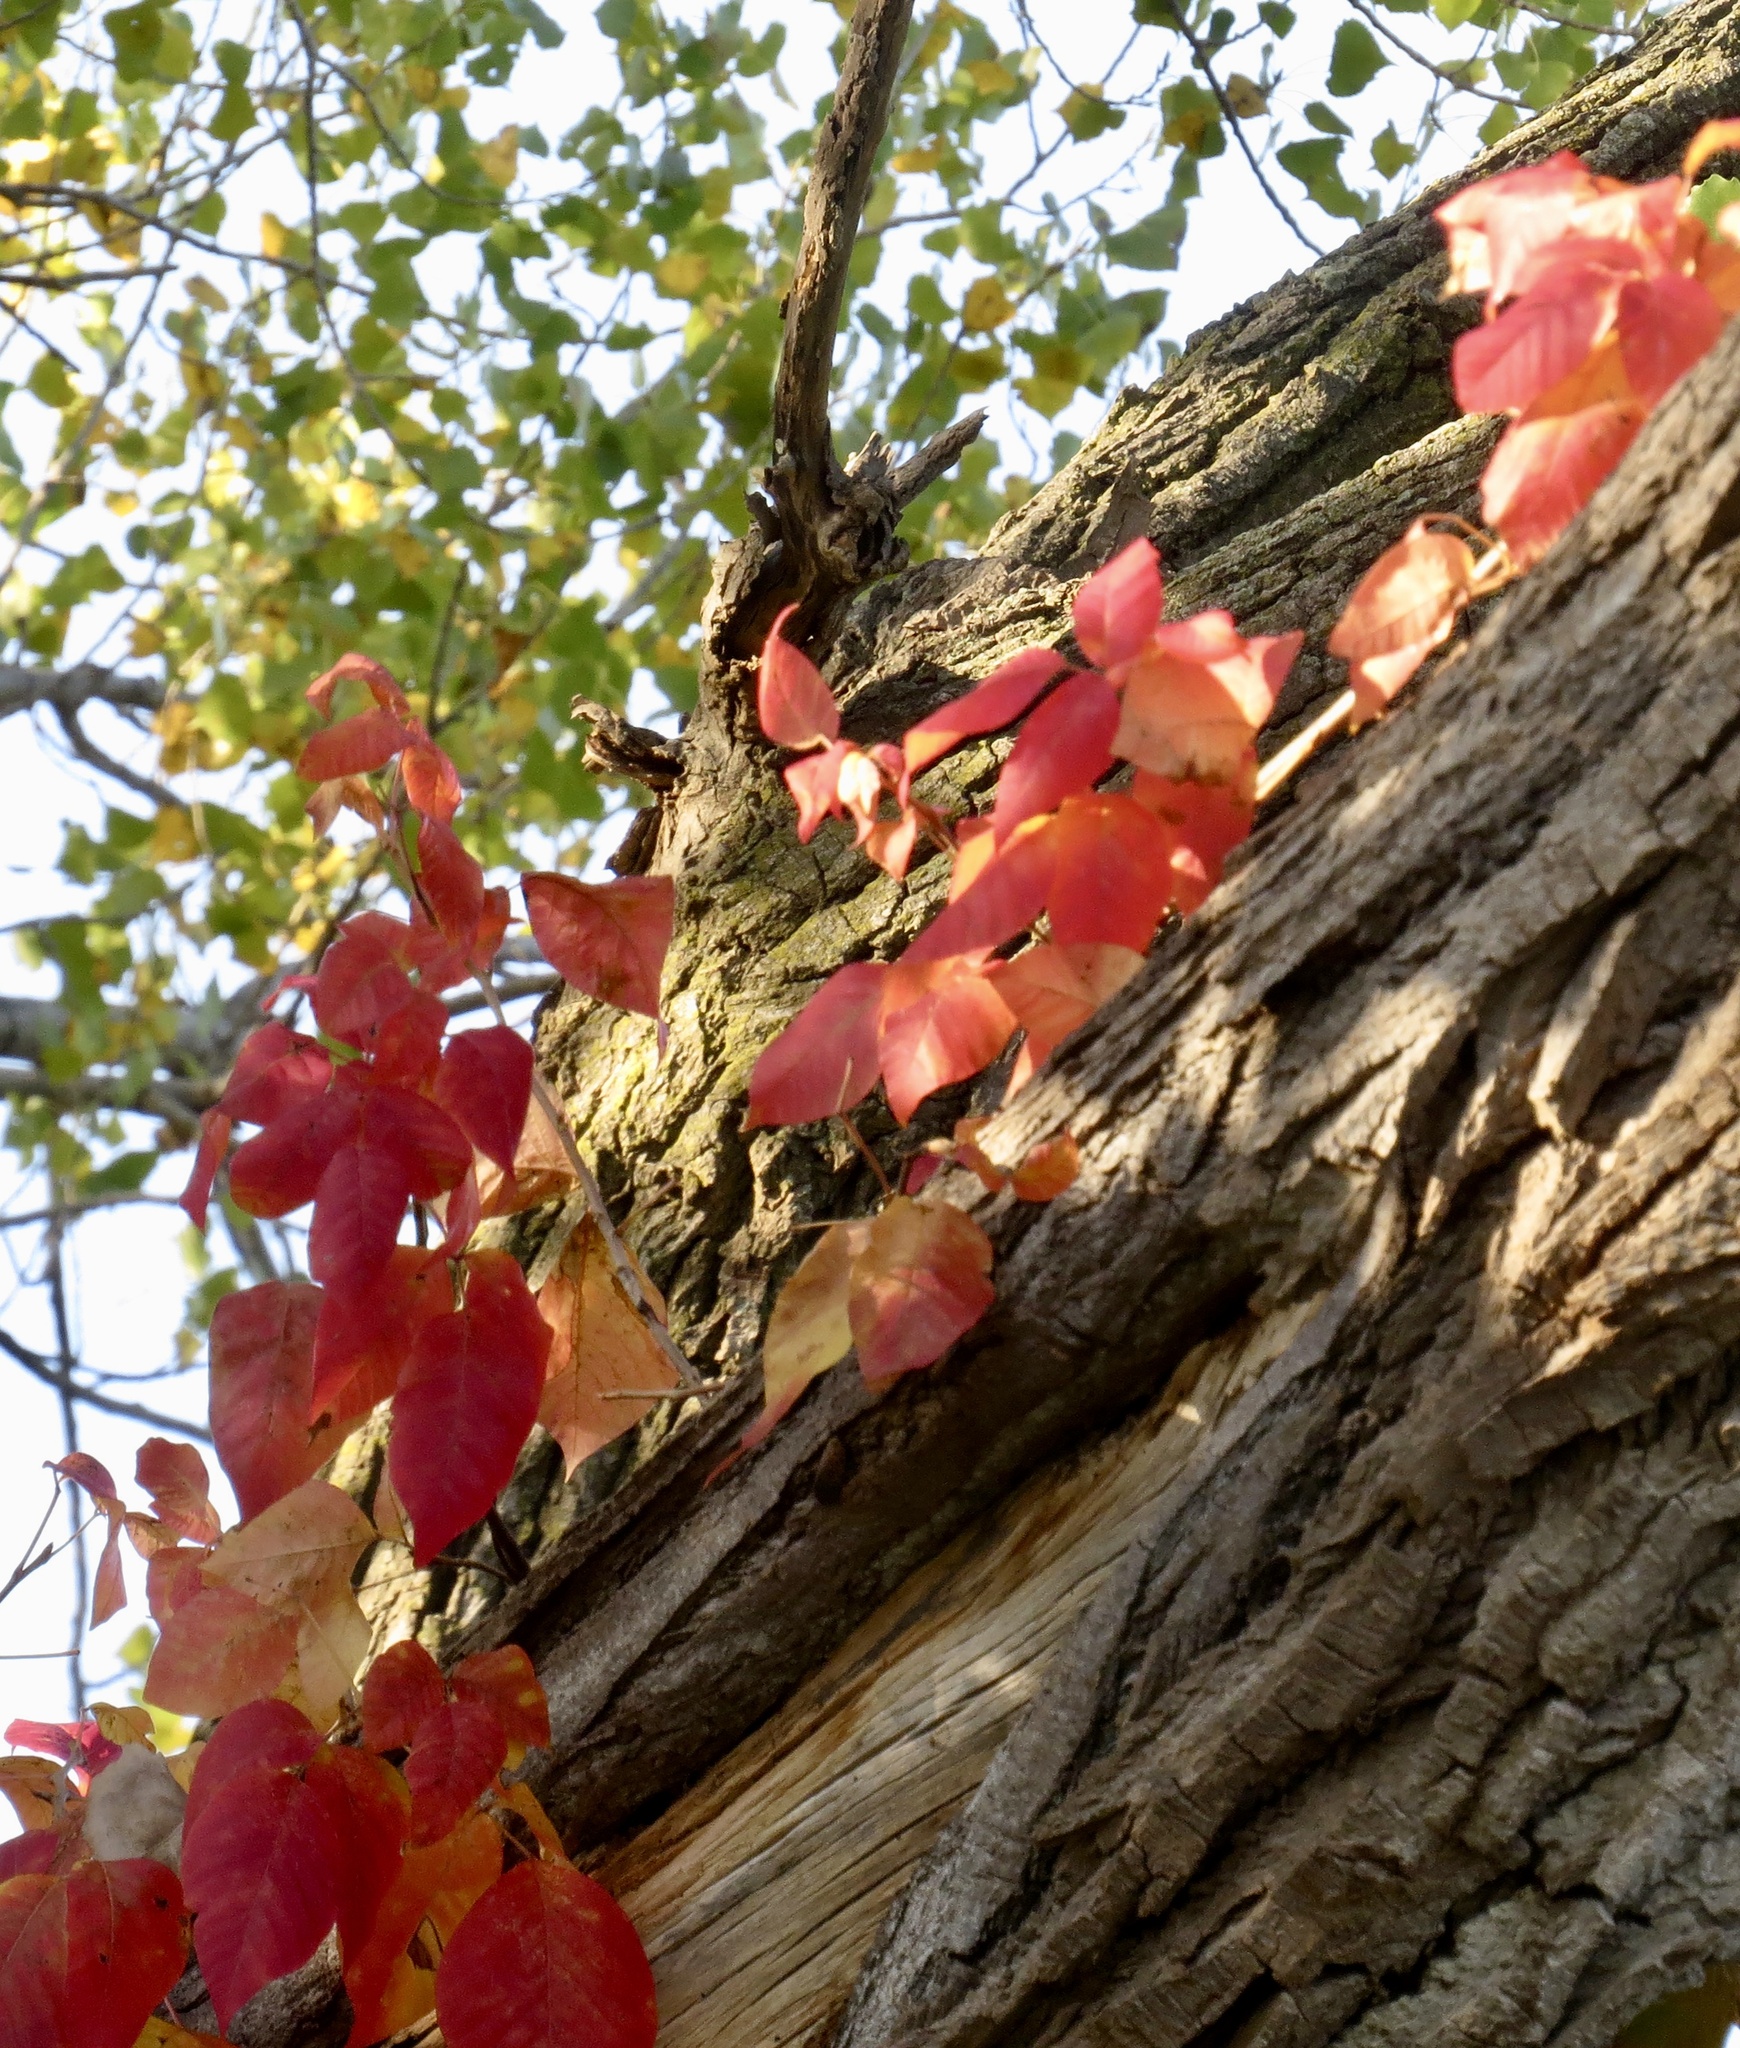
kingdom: Plantae
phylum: Tracheophyta
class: Magnoliopsida
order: Sapindales
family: Anacardiaceae
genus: Toxicodendron
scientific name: Toxicodendron radicans
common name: Poison ivy
